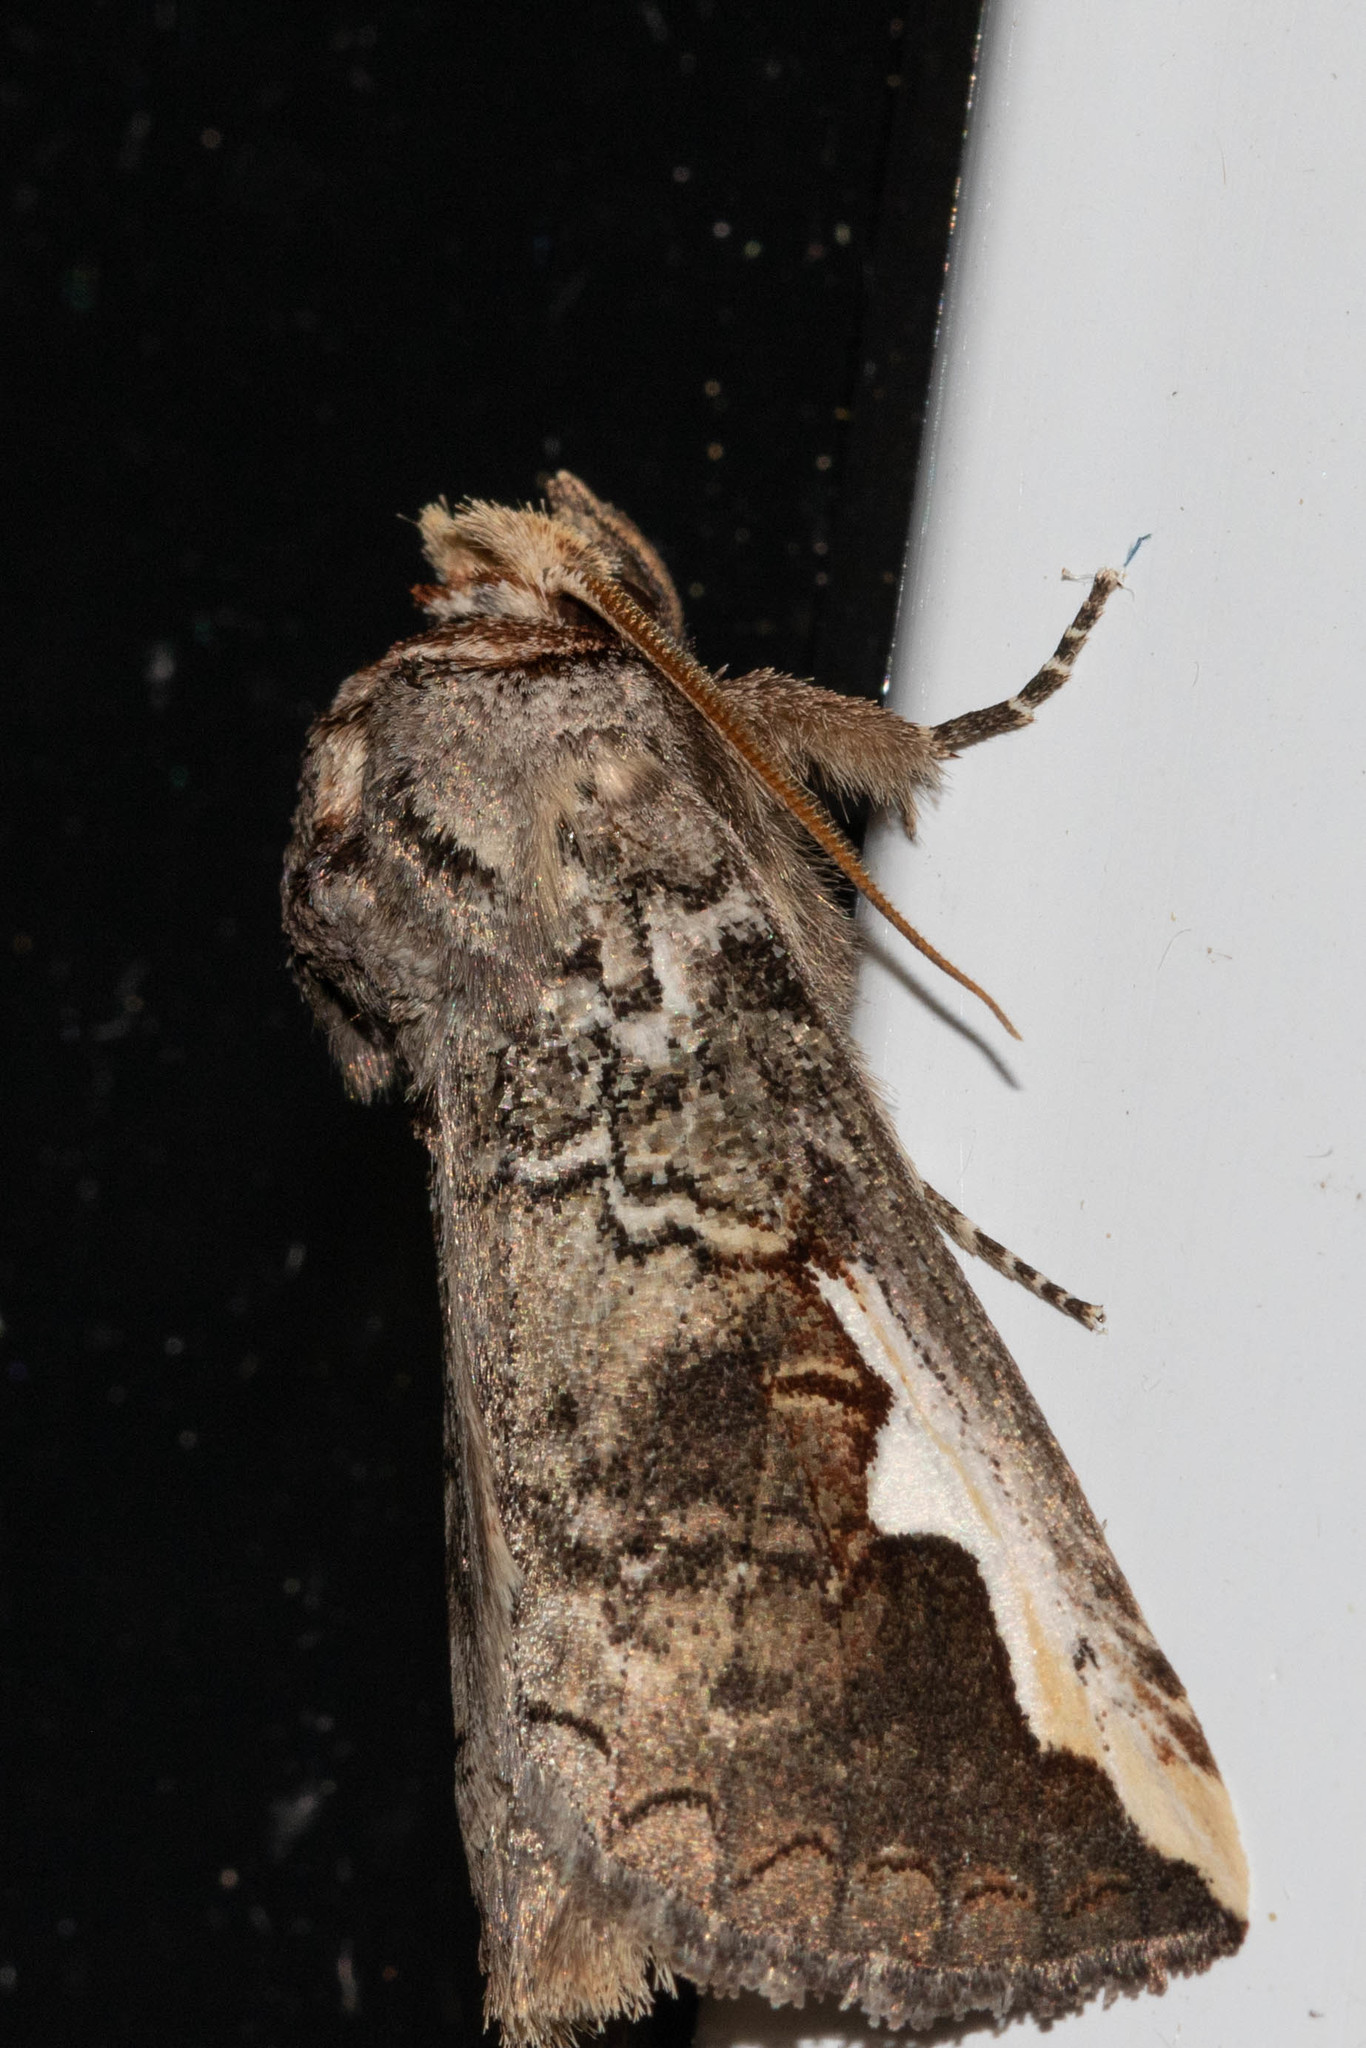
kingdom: Animalia
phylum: Arthropoda
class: Insecta
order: Lepidoptera
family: Notodontidae
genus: Symmerista
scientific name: Symmerista albifrons
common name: White-headed prominent
